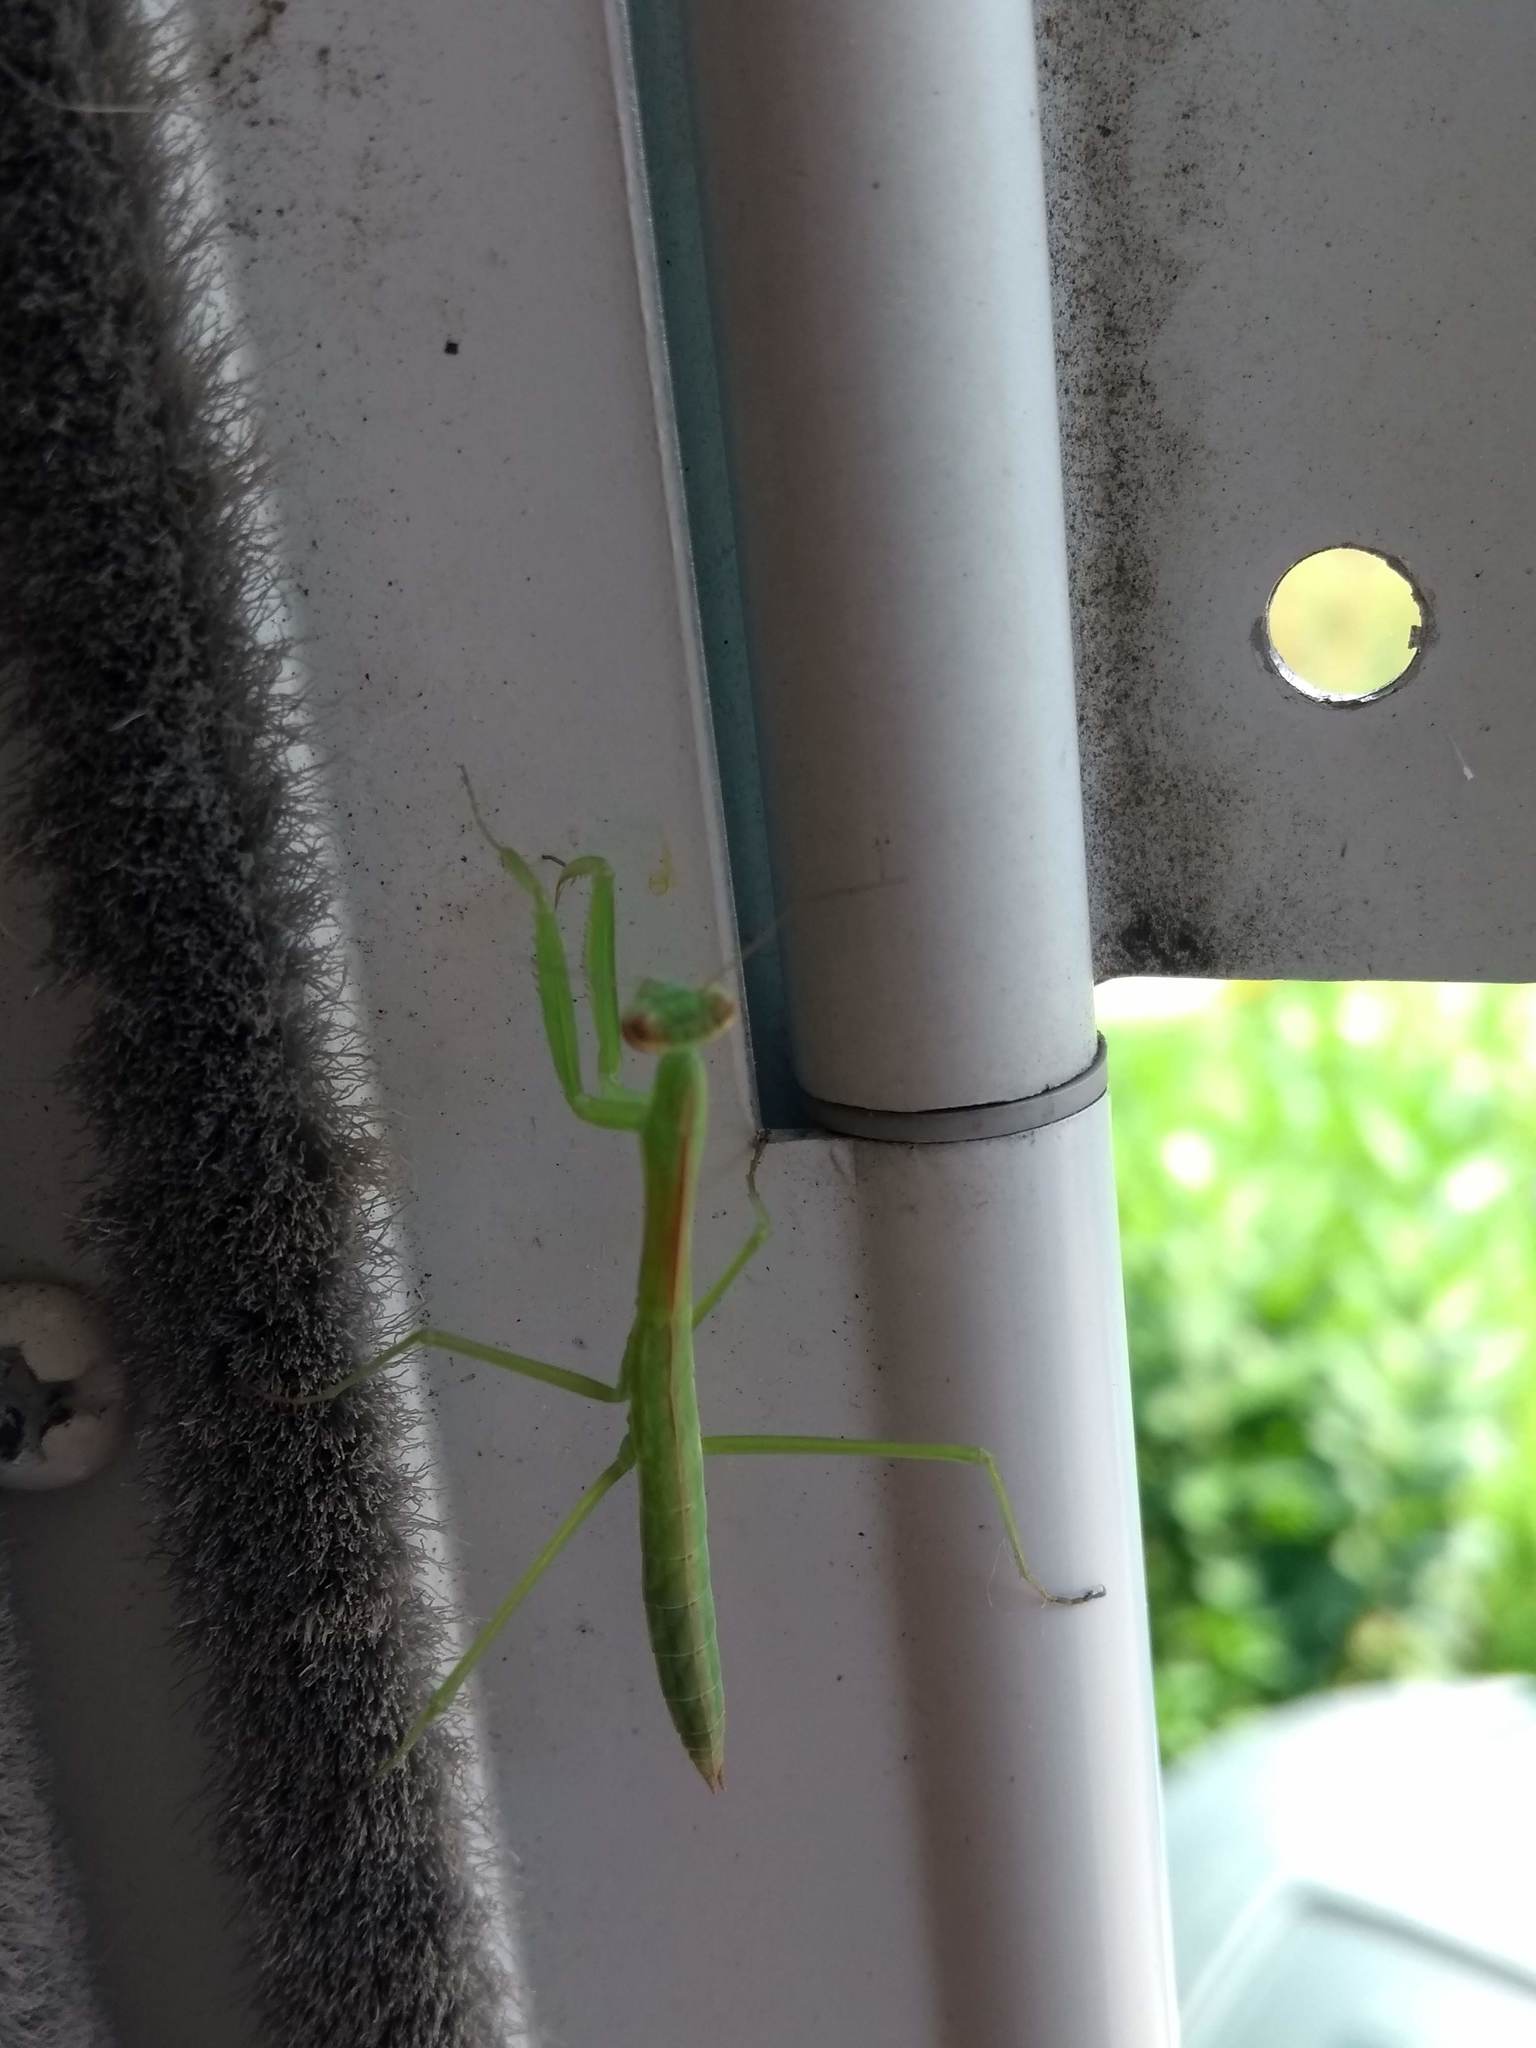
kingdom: Animalia
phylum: Arthropoda
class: Insecta
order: Mantodea
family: Mantidae
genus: Tenodera
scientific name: Tenodera sinensis
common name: Chinese mantis
